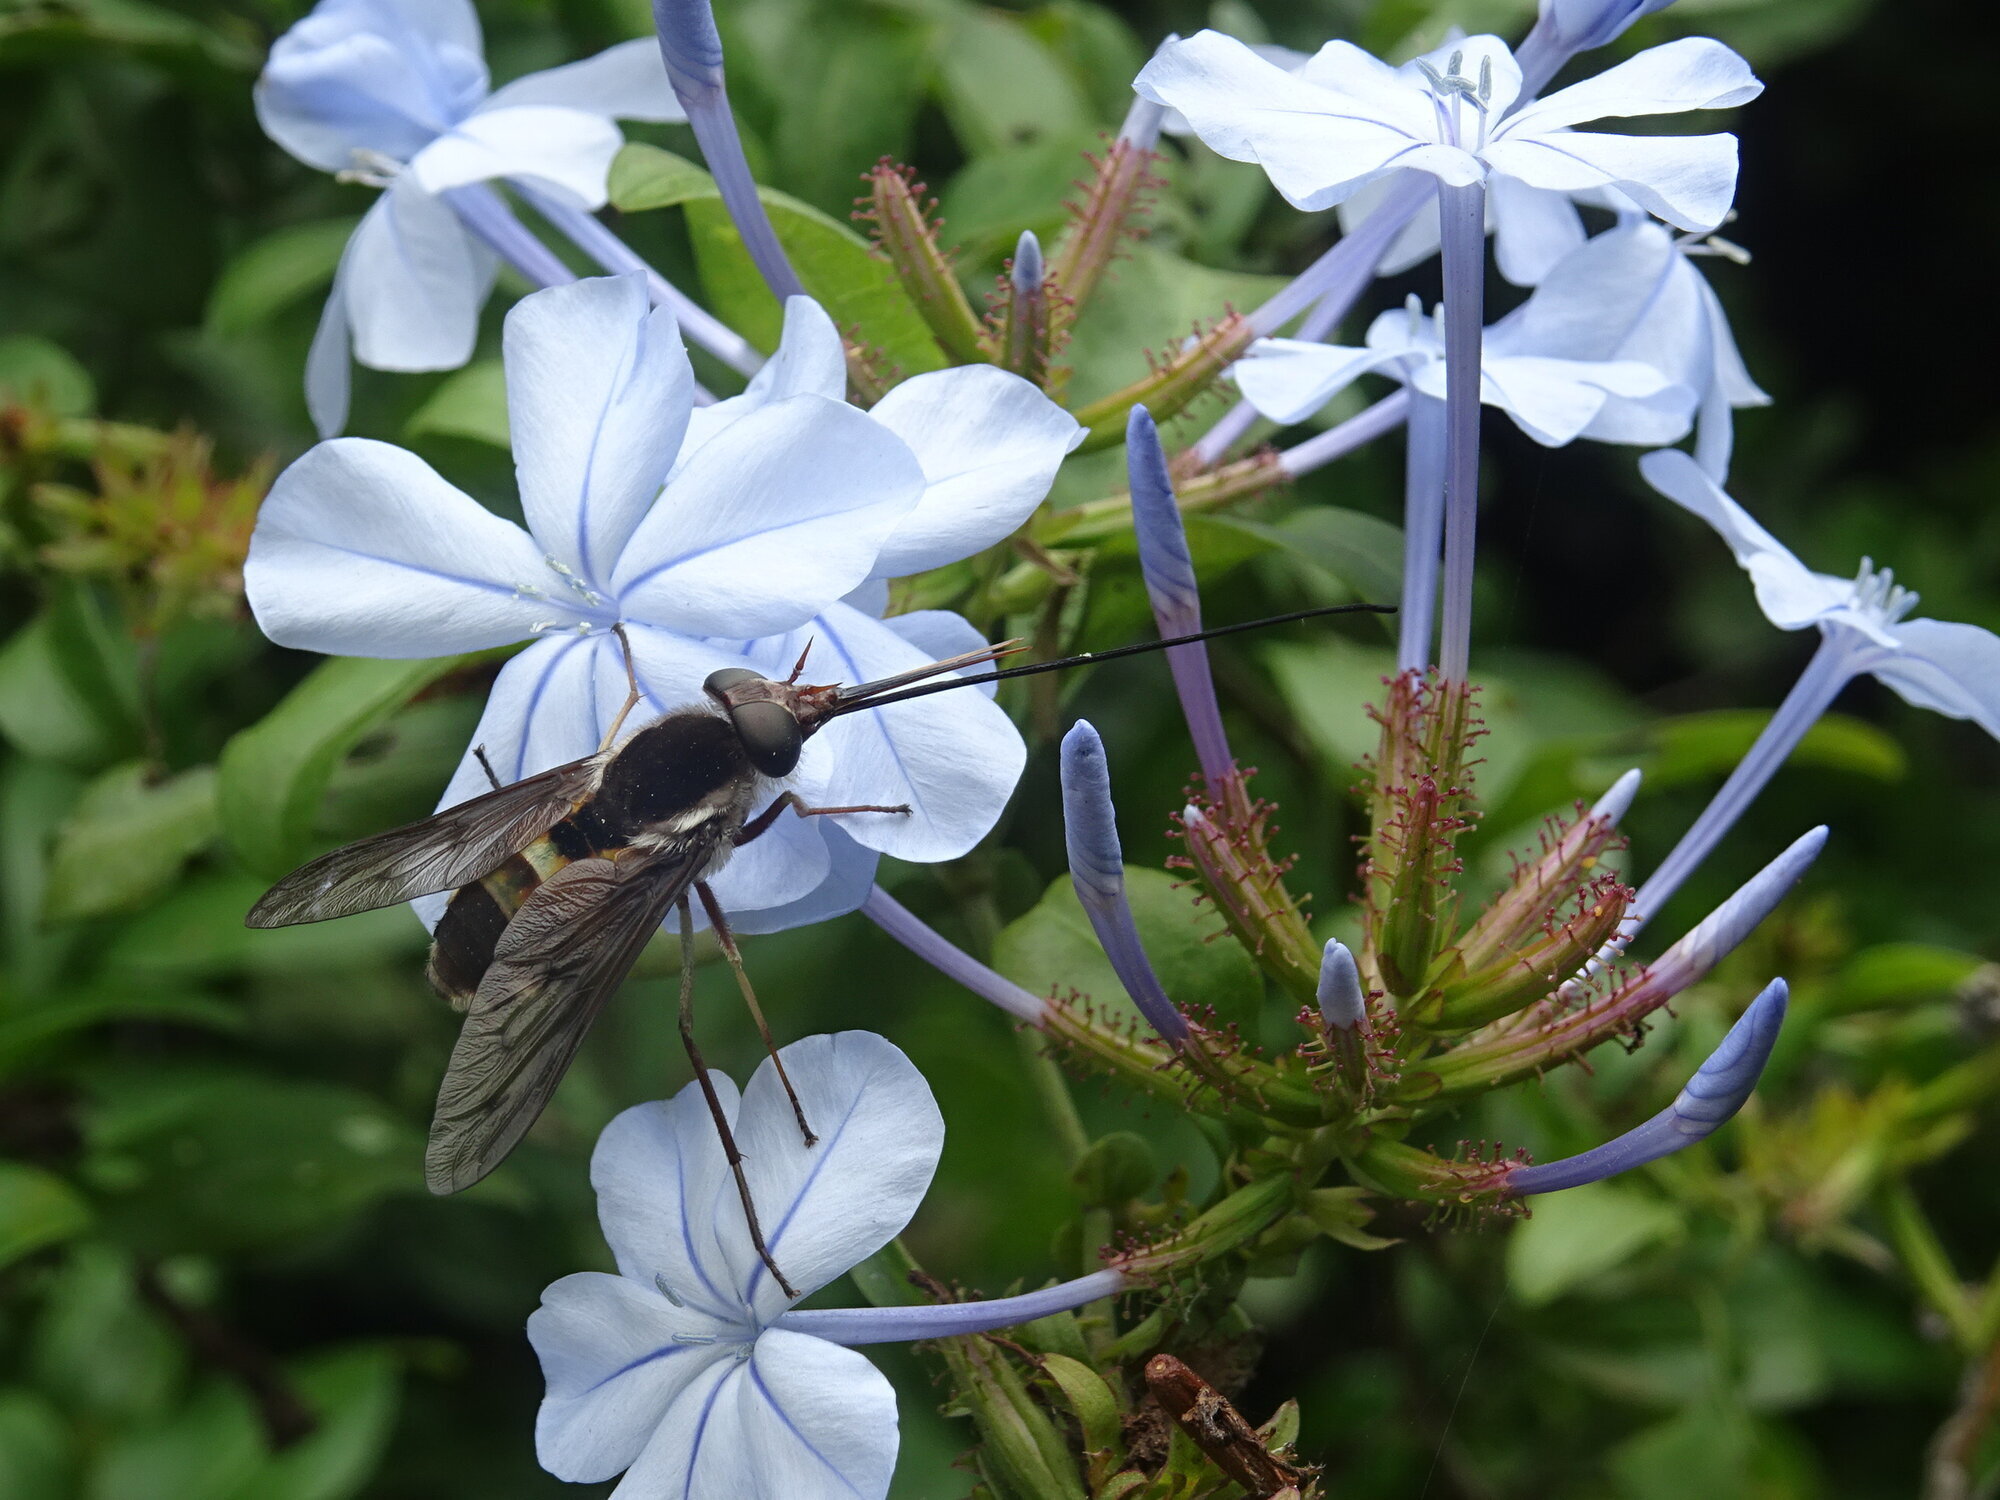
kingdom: Animalia
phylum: Arthropoda
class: Insecta
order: Diptera
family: Tabanidae
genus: Philoliche
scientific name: Philoliche umbratipennis
